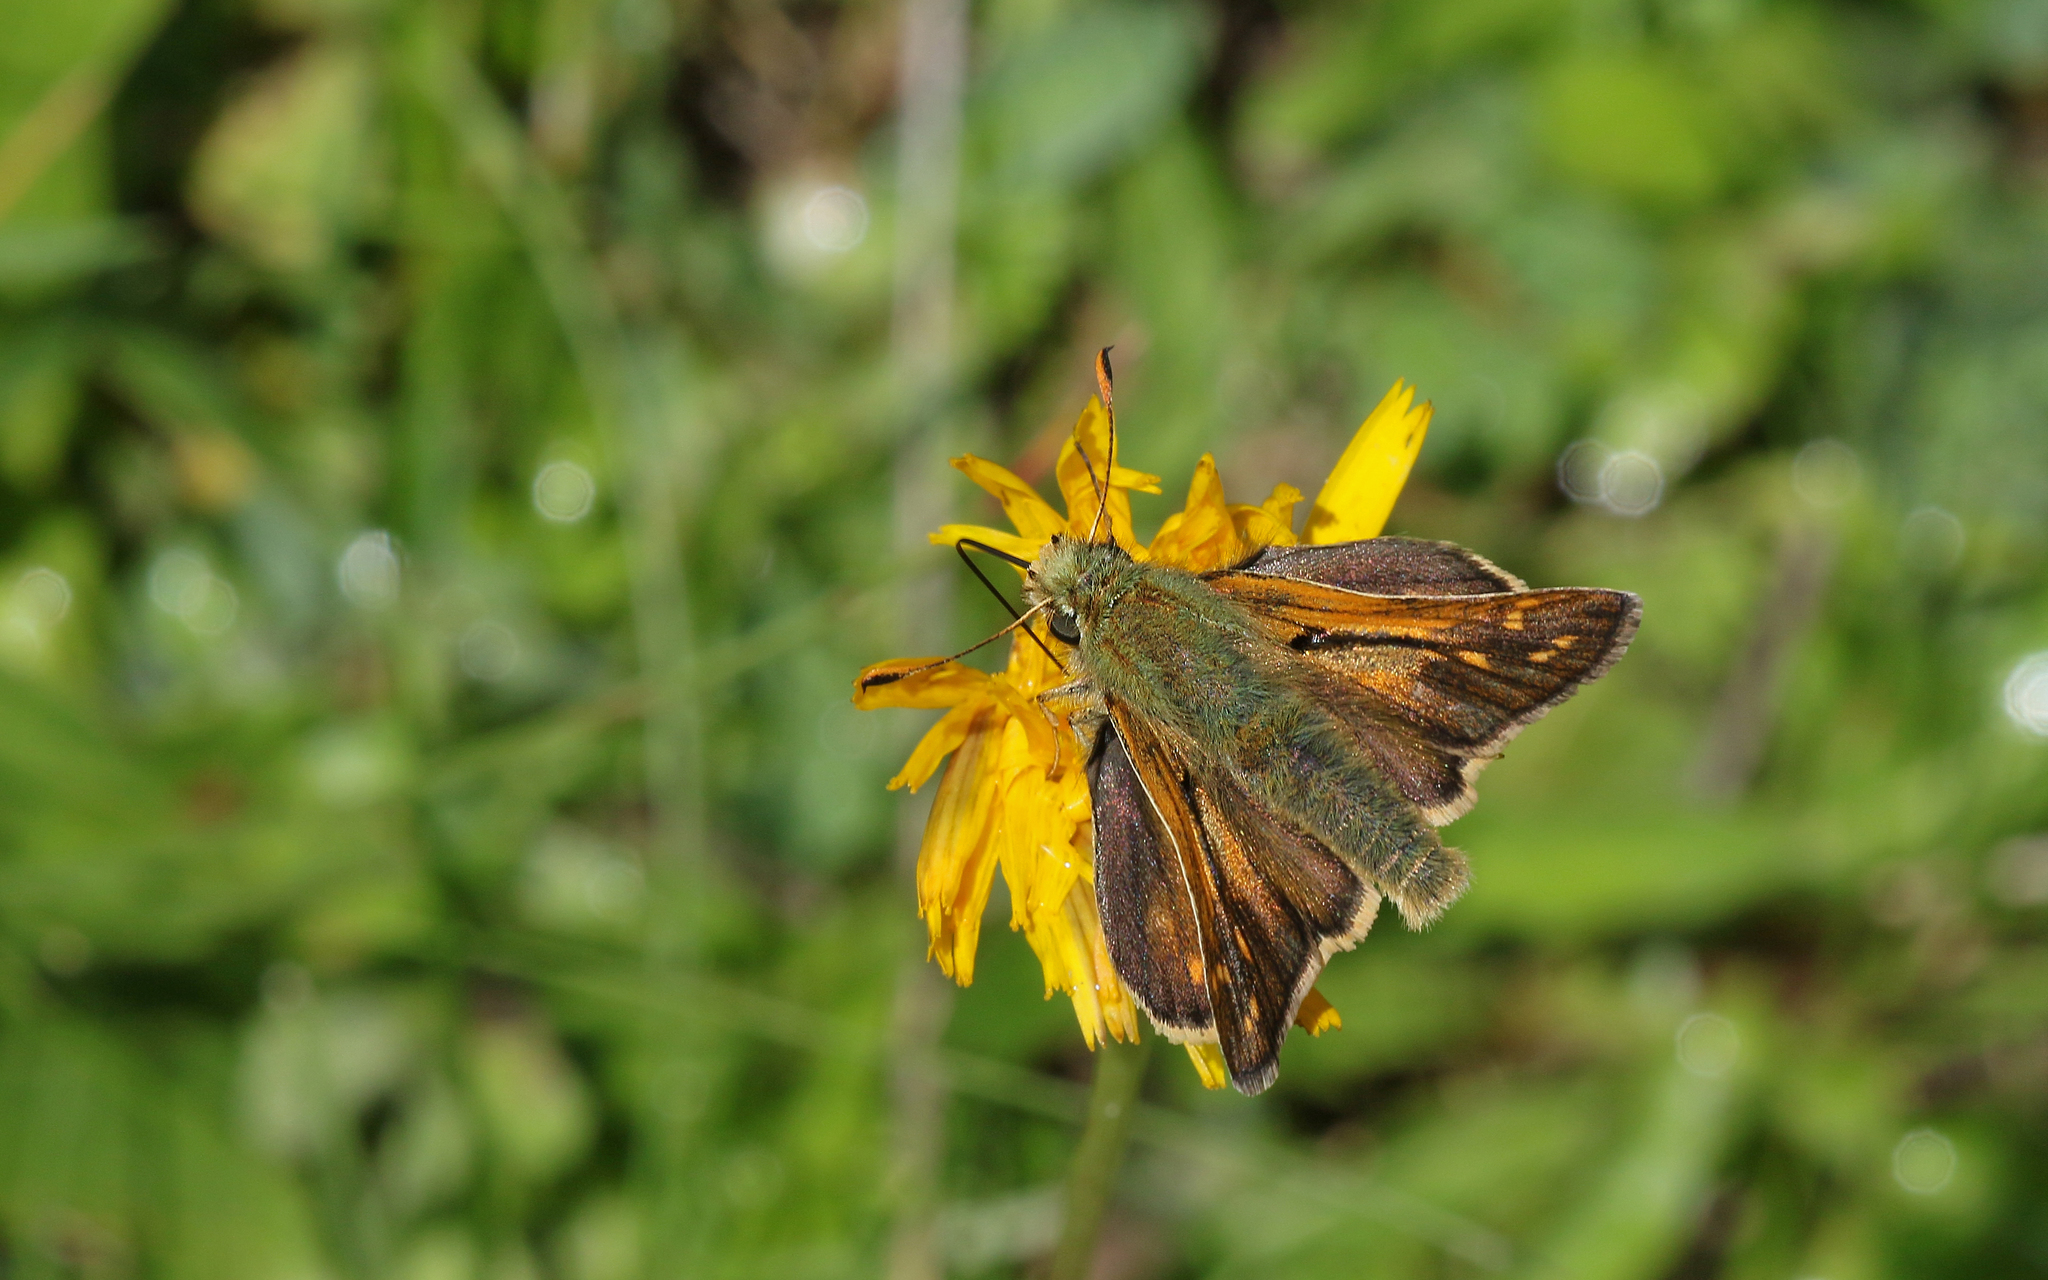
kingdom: Animalia
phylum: Arthropoda
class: Insecta
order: Lepidoptera
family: Hesperiidae
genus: Hesperia
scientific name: Hesperia comma
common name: Common branded skipper
